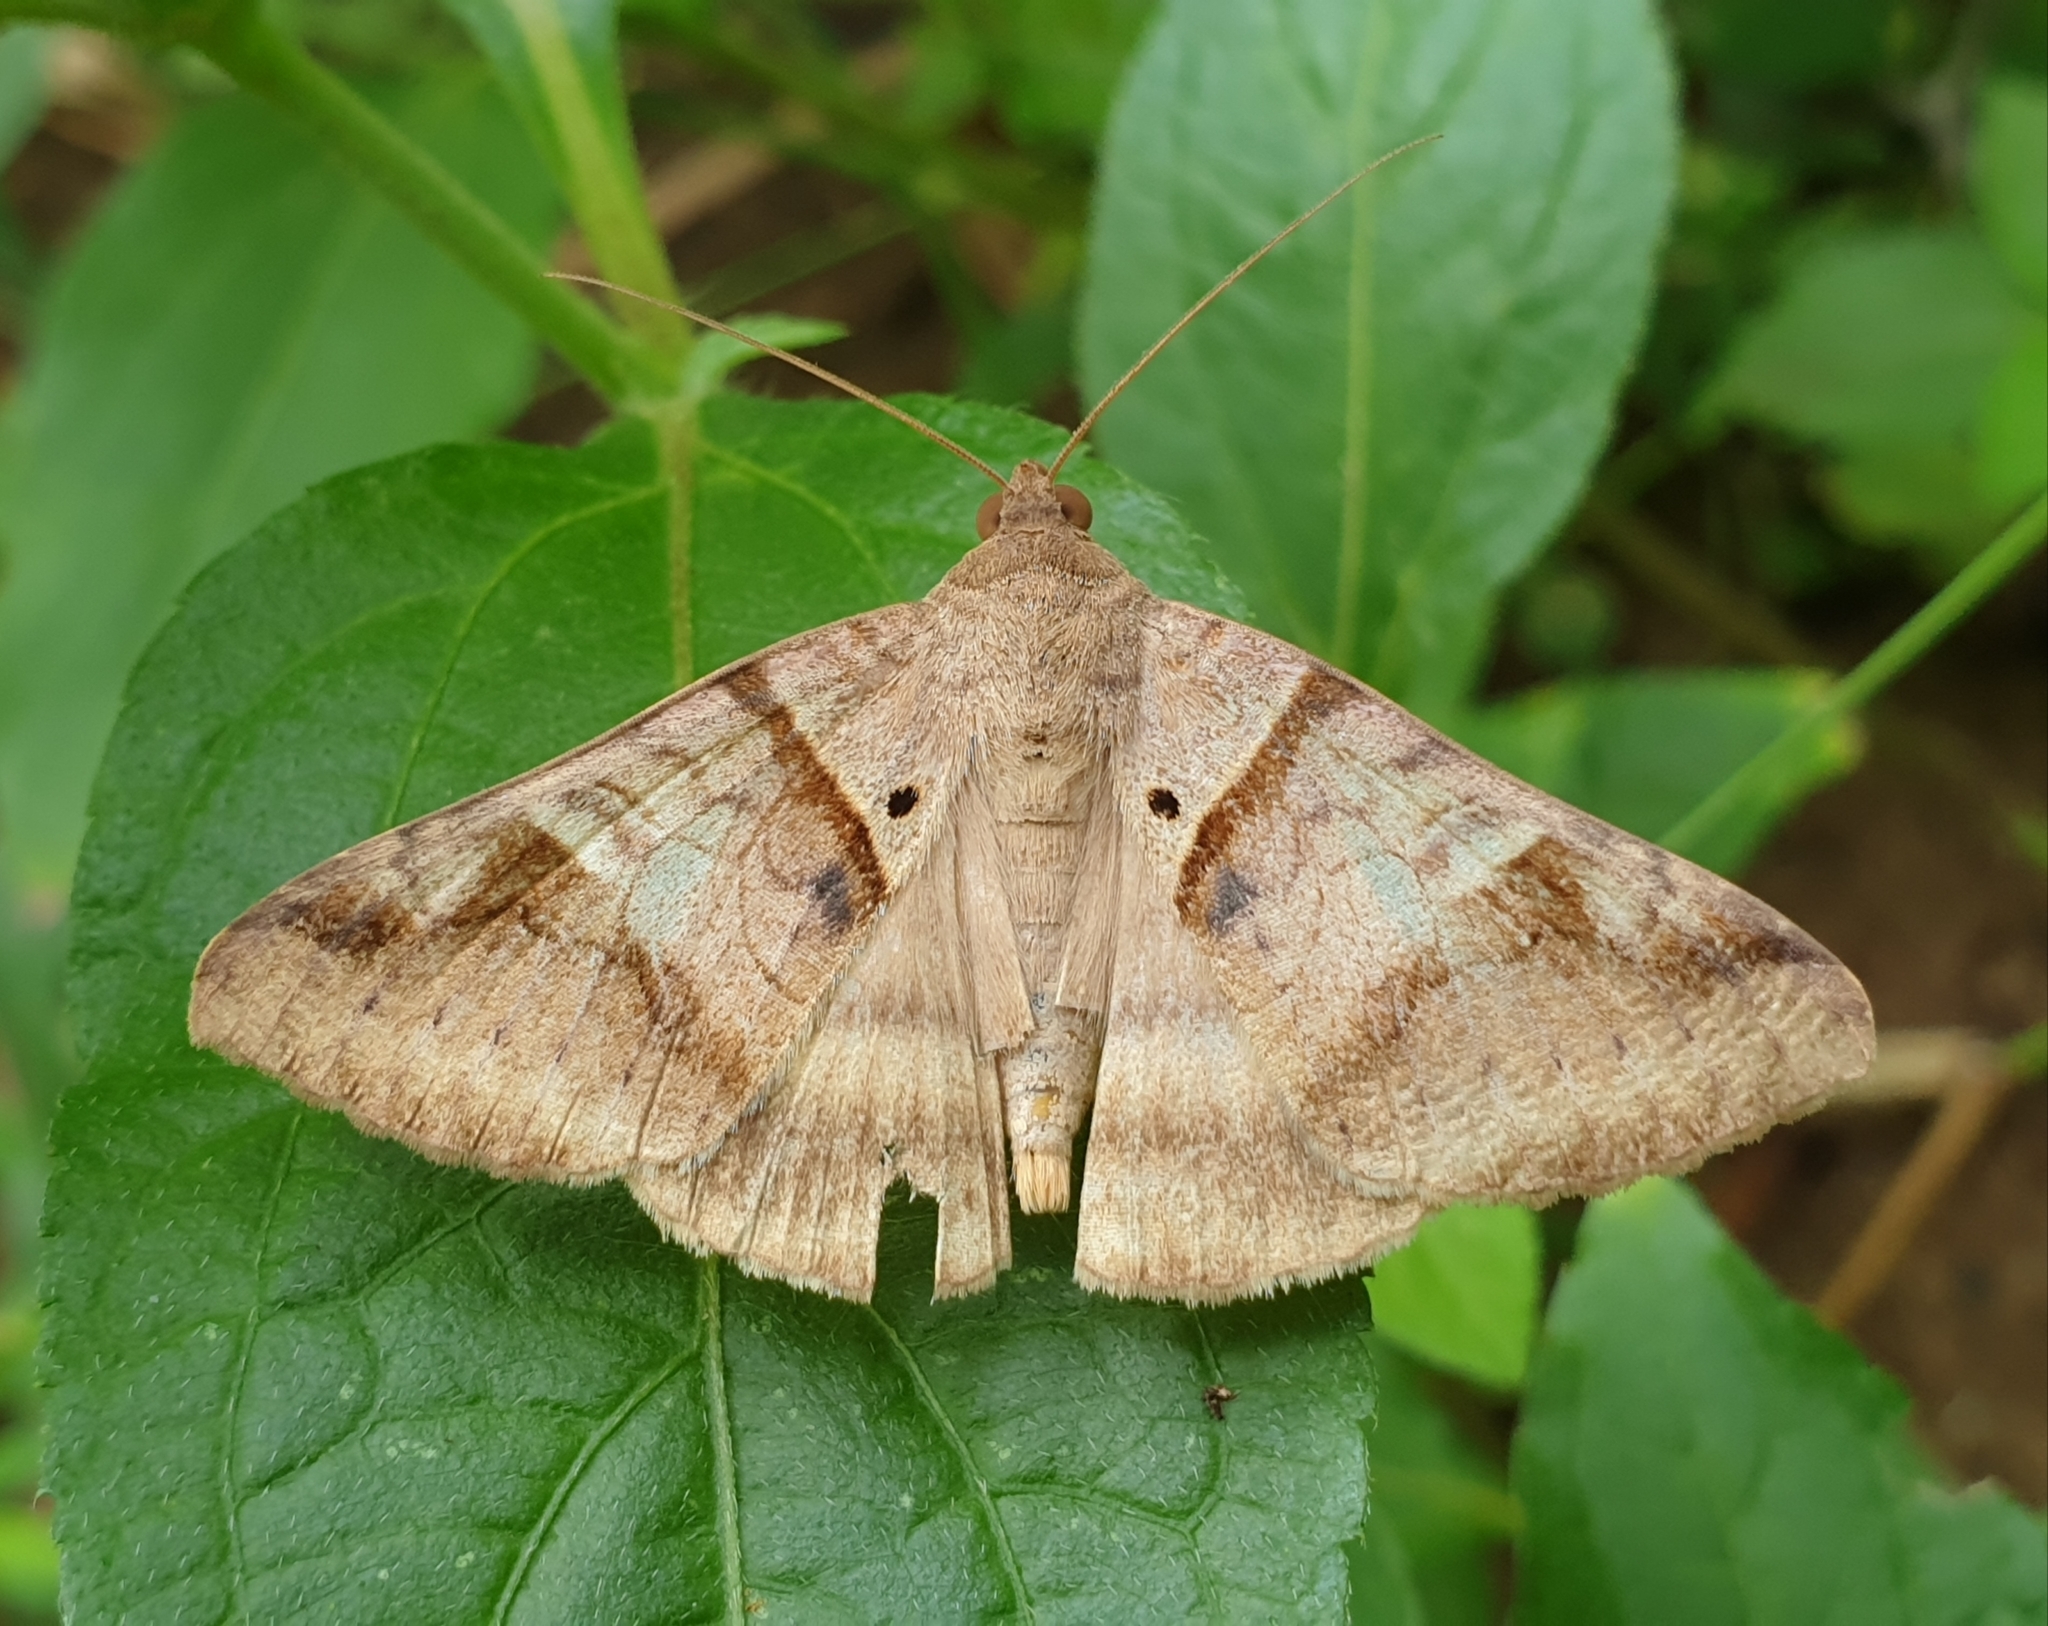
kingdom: Animalia
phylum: Arthropoda
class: Insecta
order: Lepidoptera
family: Erebidae
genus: Mocis
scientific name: Mocis undata
